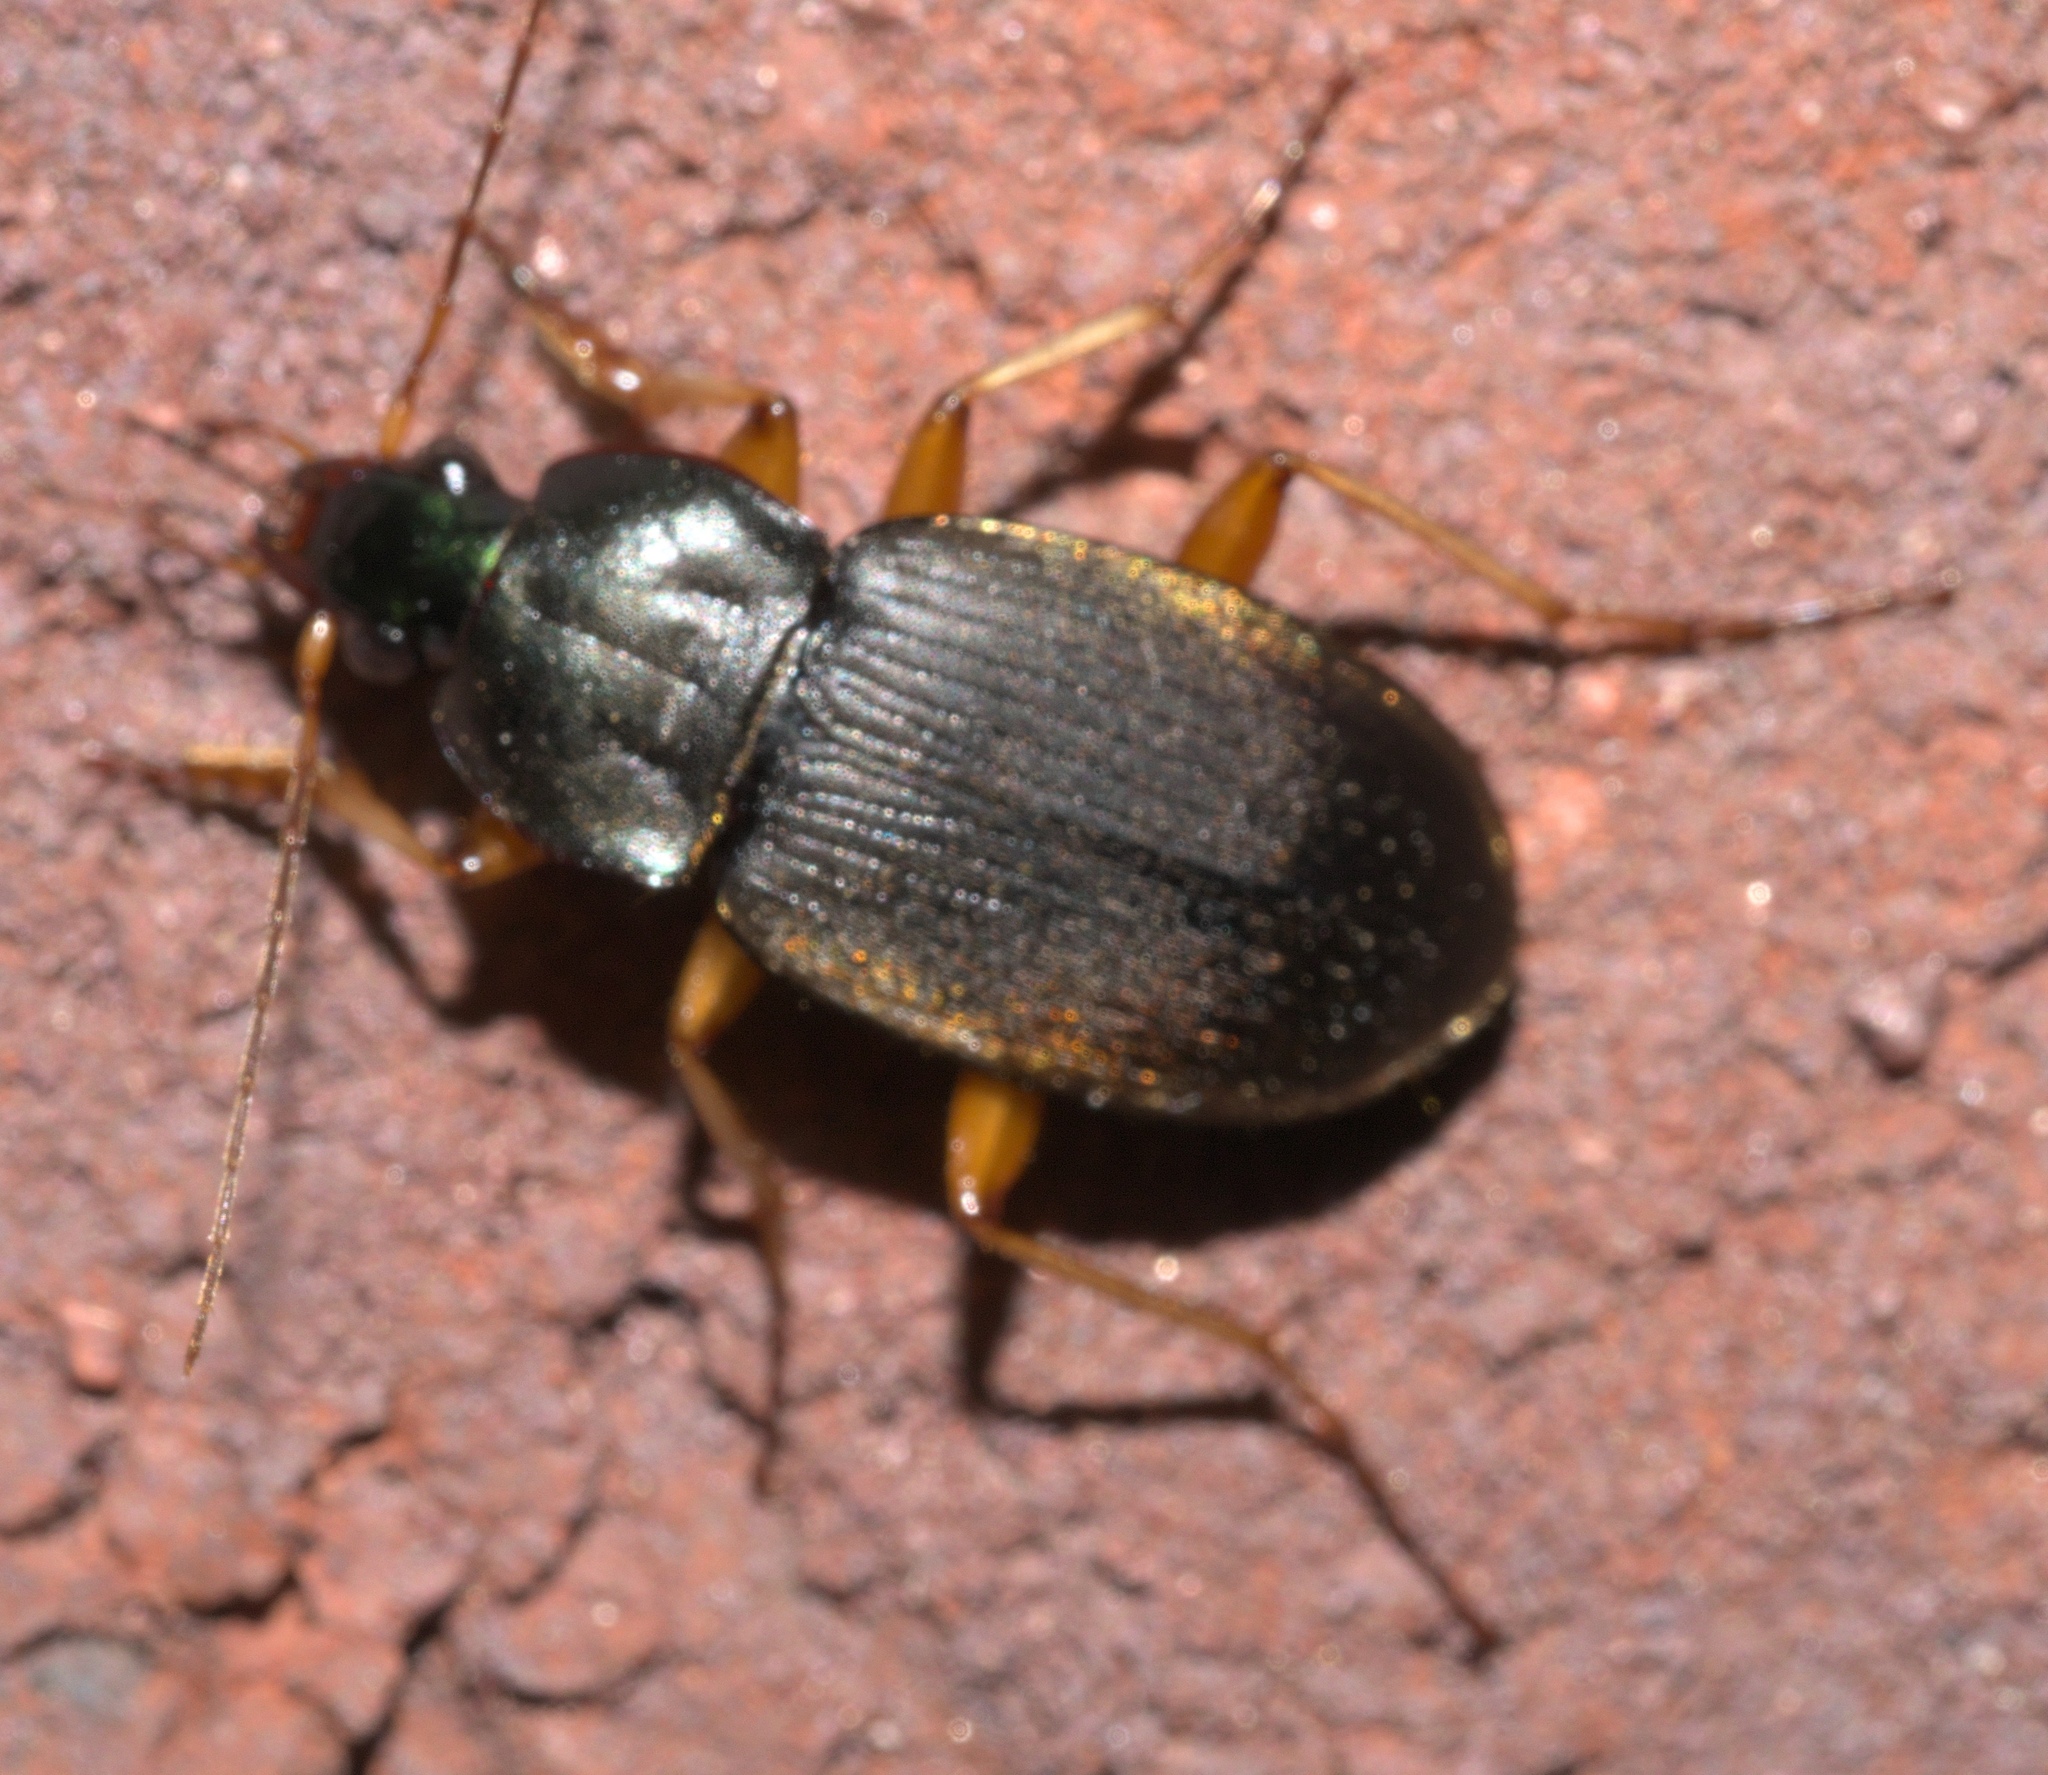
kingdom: Animalia
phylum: Arthropoda
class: Insecta
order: Coleoptera
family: Carabidae
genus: Chlaenius
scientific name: Chlaenius impunctifrons
